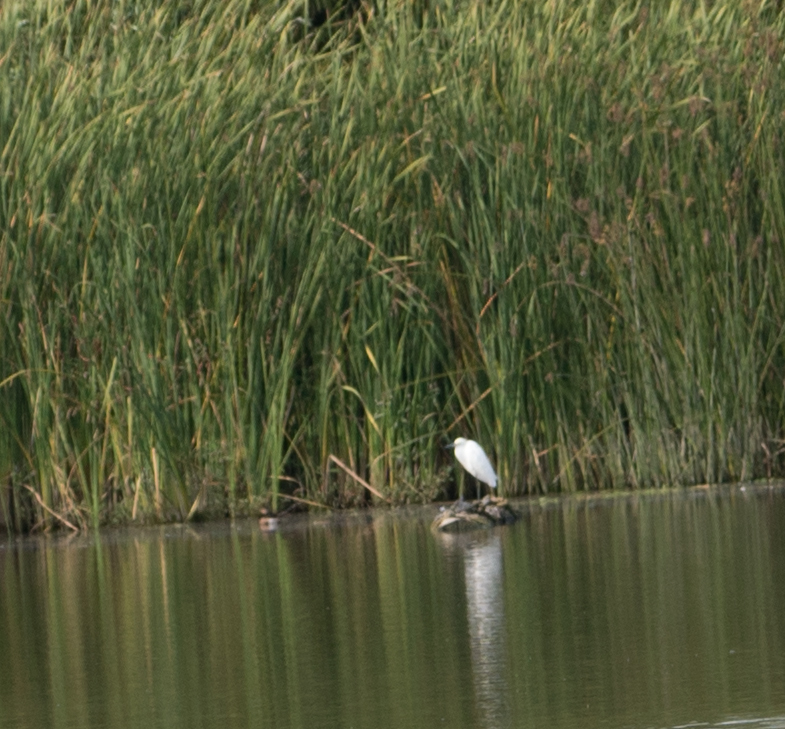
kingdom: Animalia
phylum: Chordata
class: Aves
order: Pelecaniformes
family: Ardeidae
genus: Egretta
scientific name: Egretta thula
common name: Snowy egret
